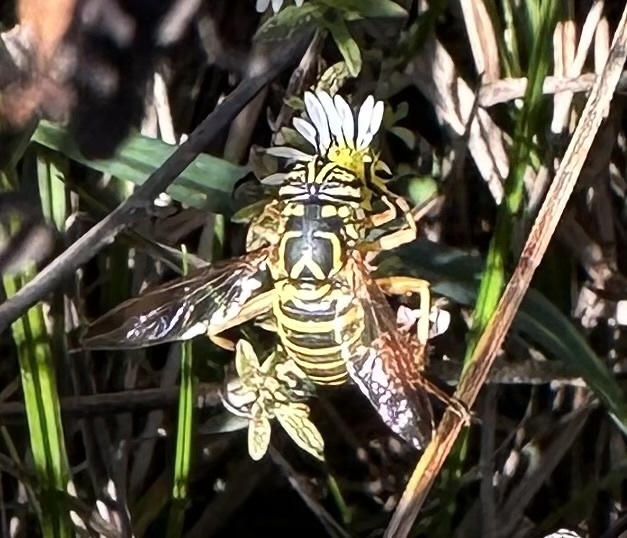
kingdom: Animalia
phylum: Arthropoda
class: Insecta
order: Diptera
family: Syrphidae
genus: Spilomyia
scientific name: Spilomyia longicornis
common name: Eastern hornet fly
